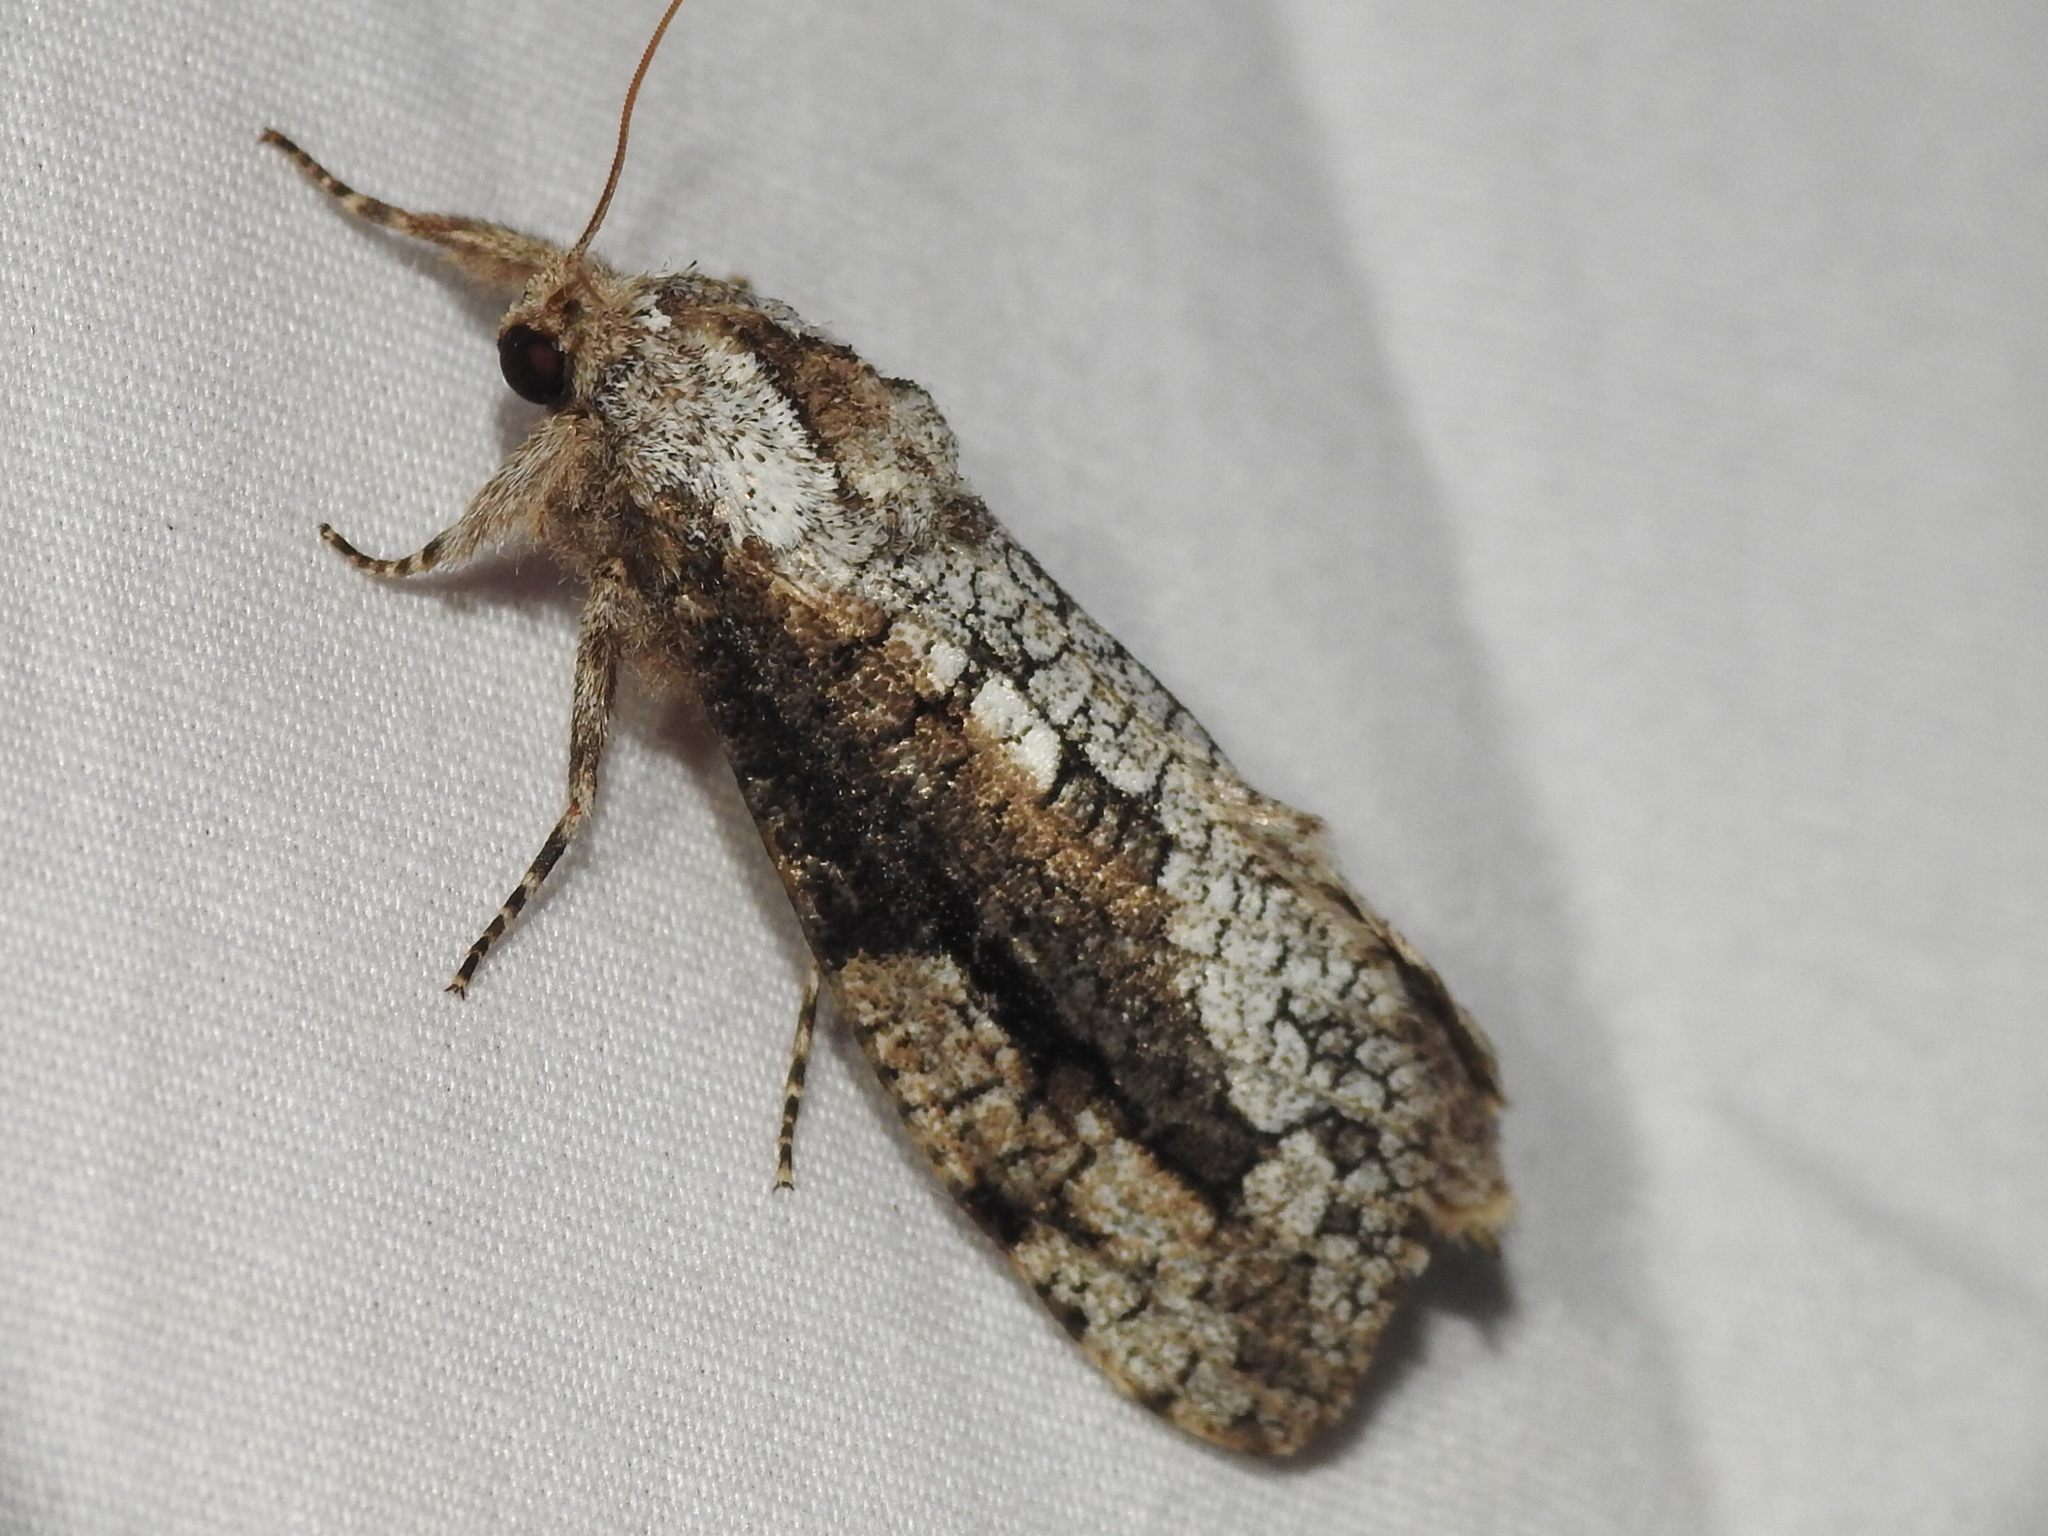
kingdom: Animalia
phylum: Arthropoda
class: Insecta
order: Lepidoptera
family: Cossidae
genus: Brypoctia
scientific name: Brypoctia
